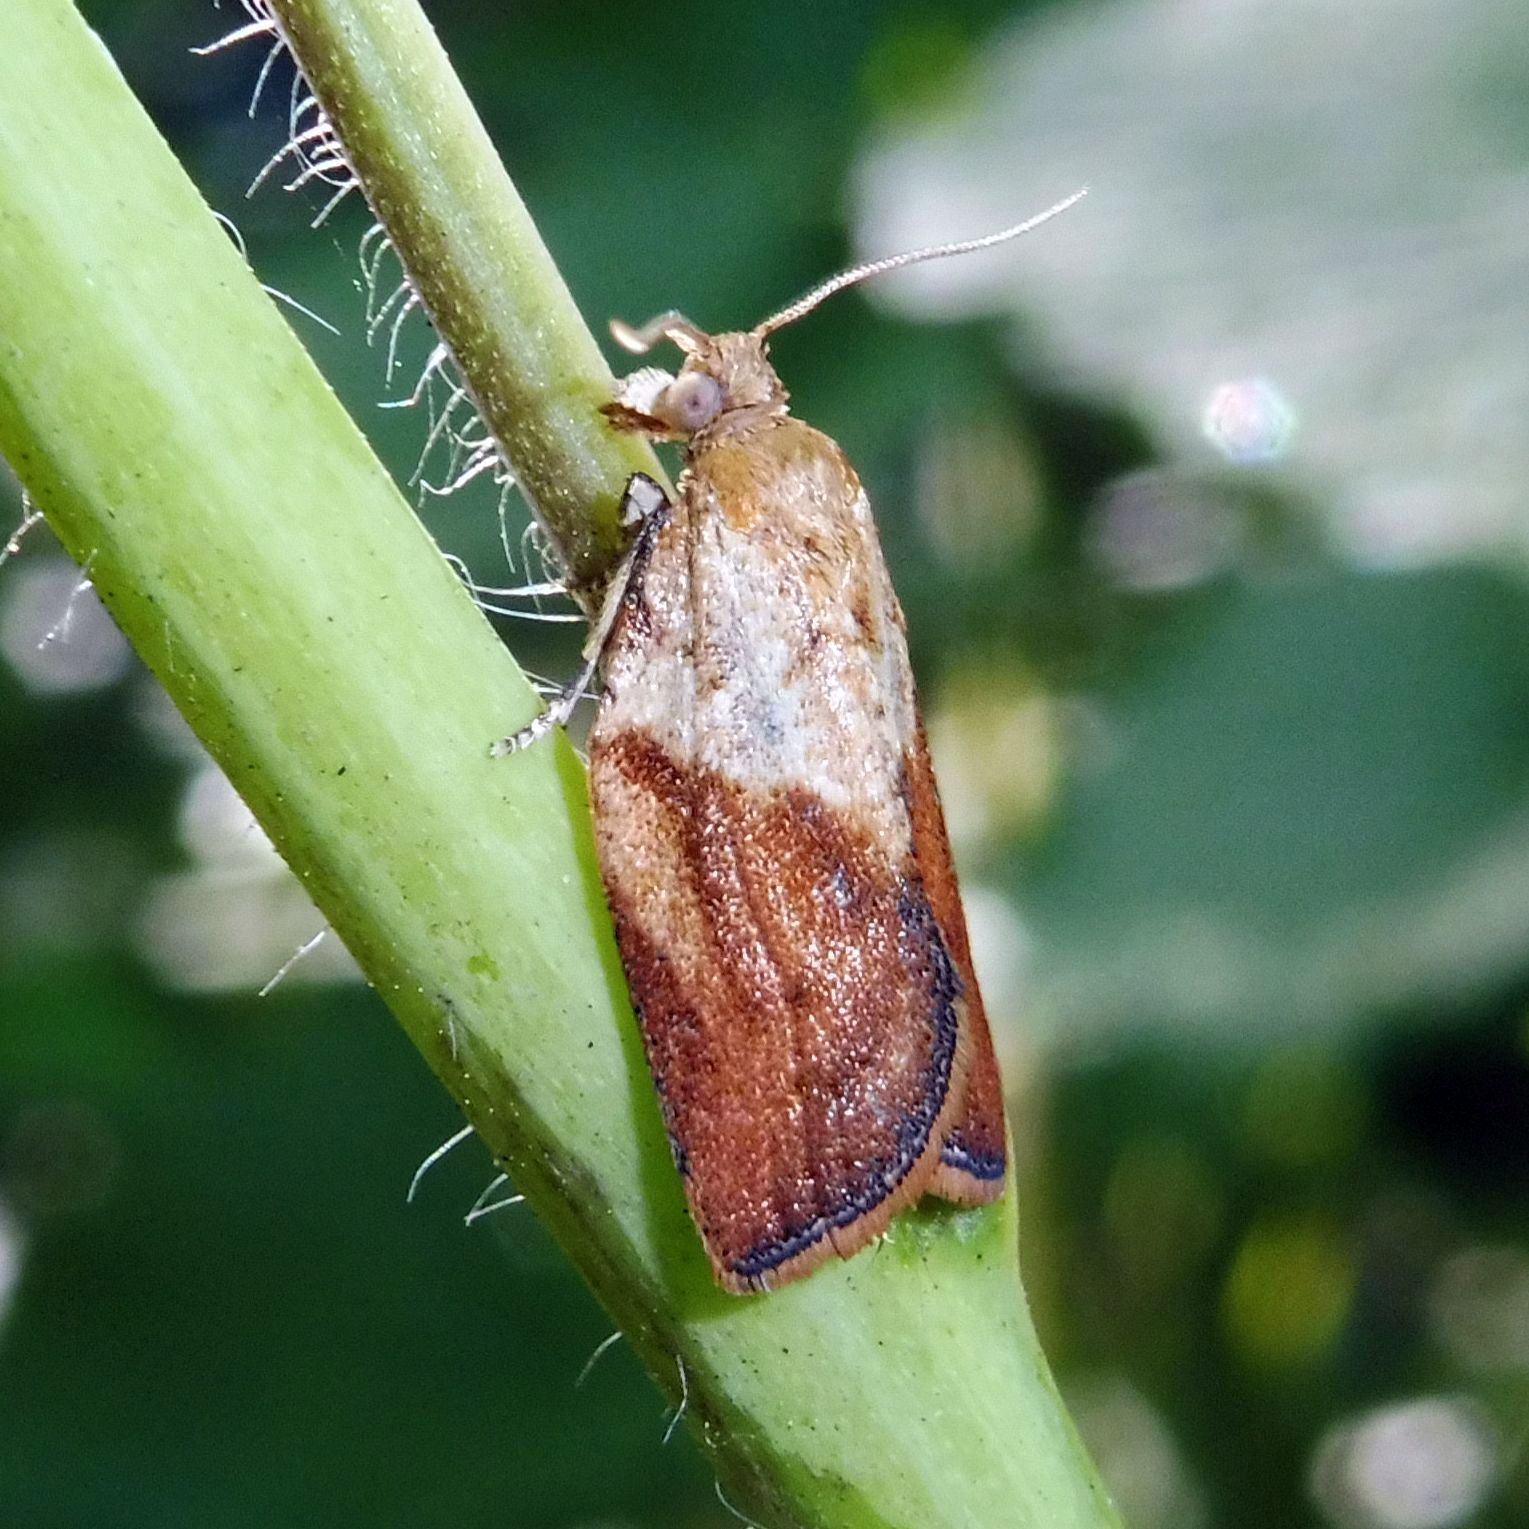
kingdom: Animalia
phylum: Arthropoda
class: Insecta
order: Lepidoptera
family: Tortricidae
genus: Epiphyas
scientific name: Epiphyas postvittana
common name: Light brown apple moth
